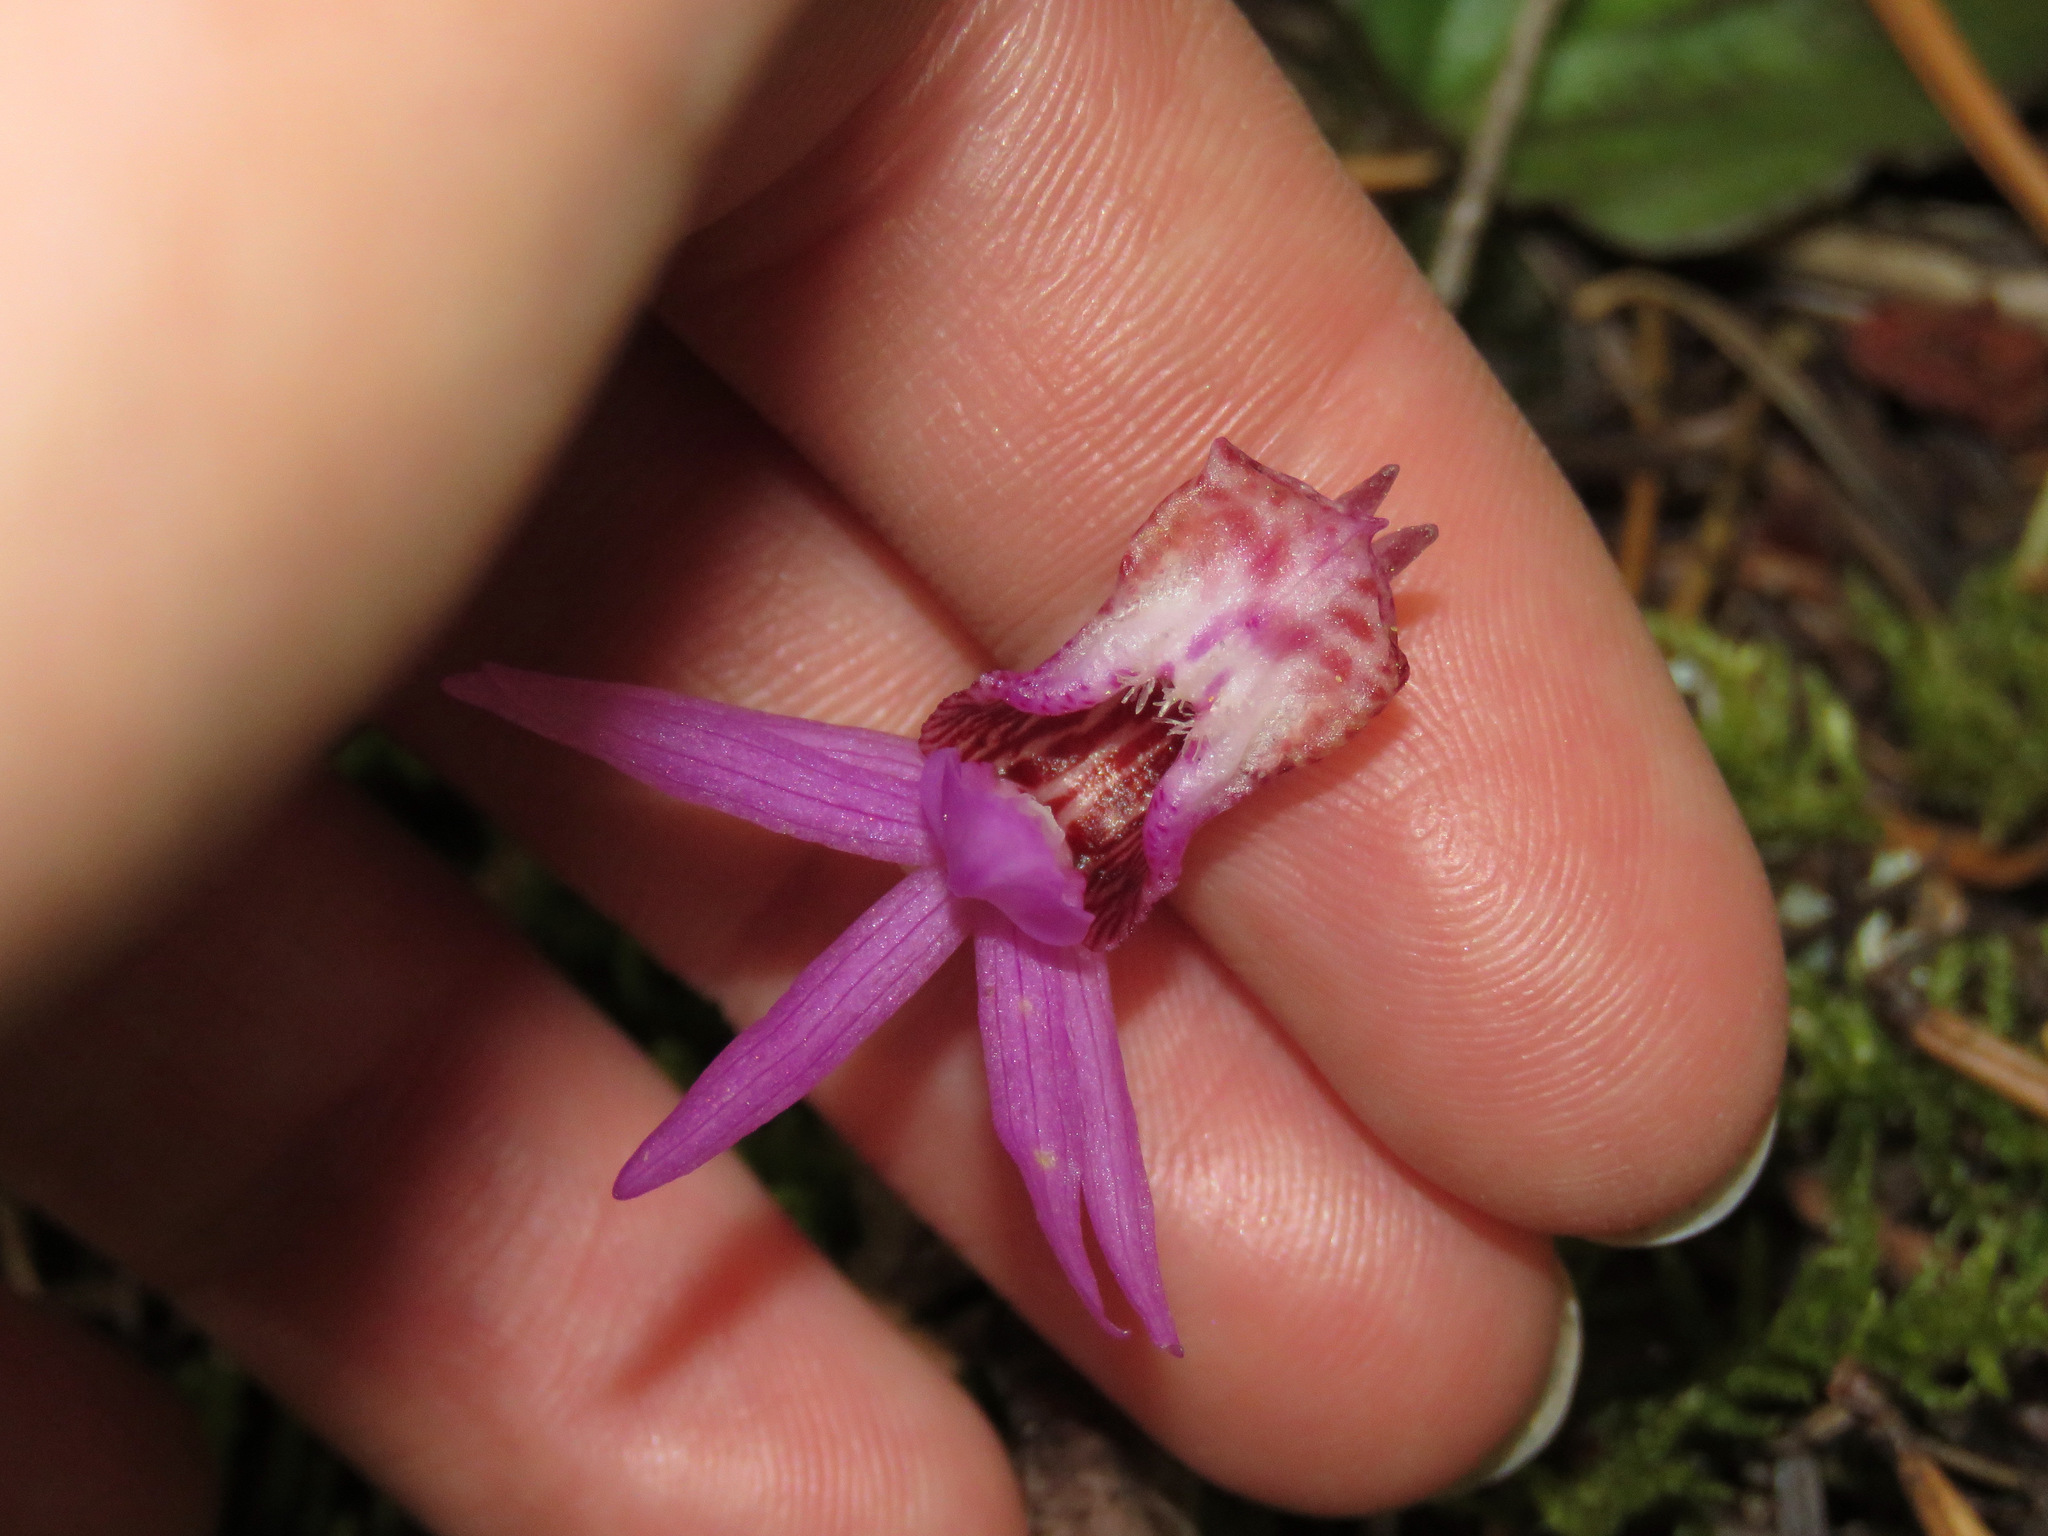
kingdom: Plantae
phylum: Tracheophyta
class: Liliopsida
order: Asparagales
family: Orchidaceae
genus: Calypso
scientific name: Calypso bulbosa
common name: Calypso
